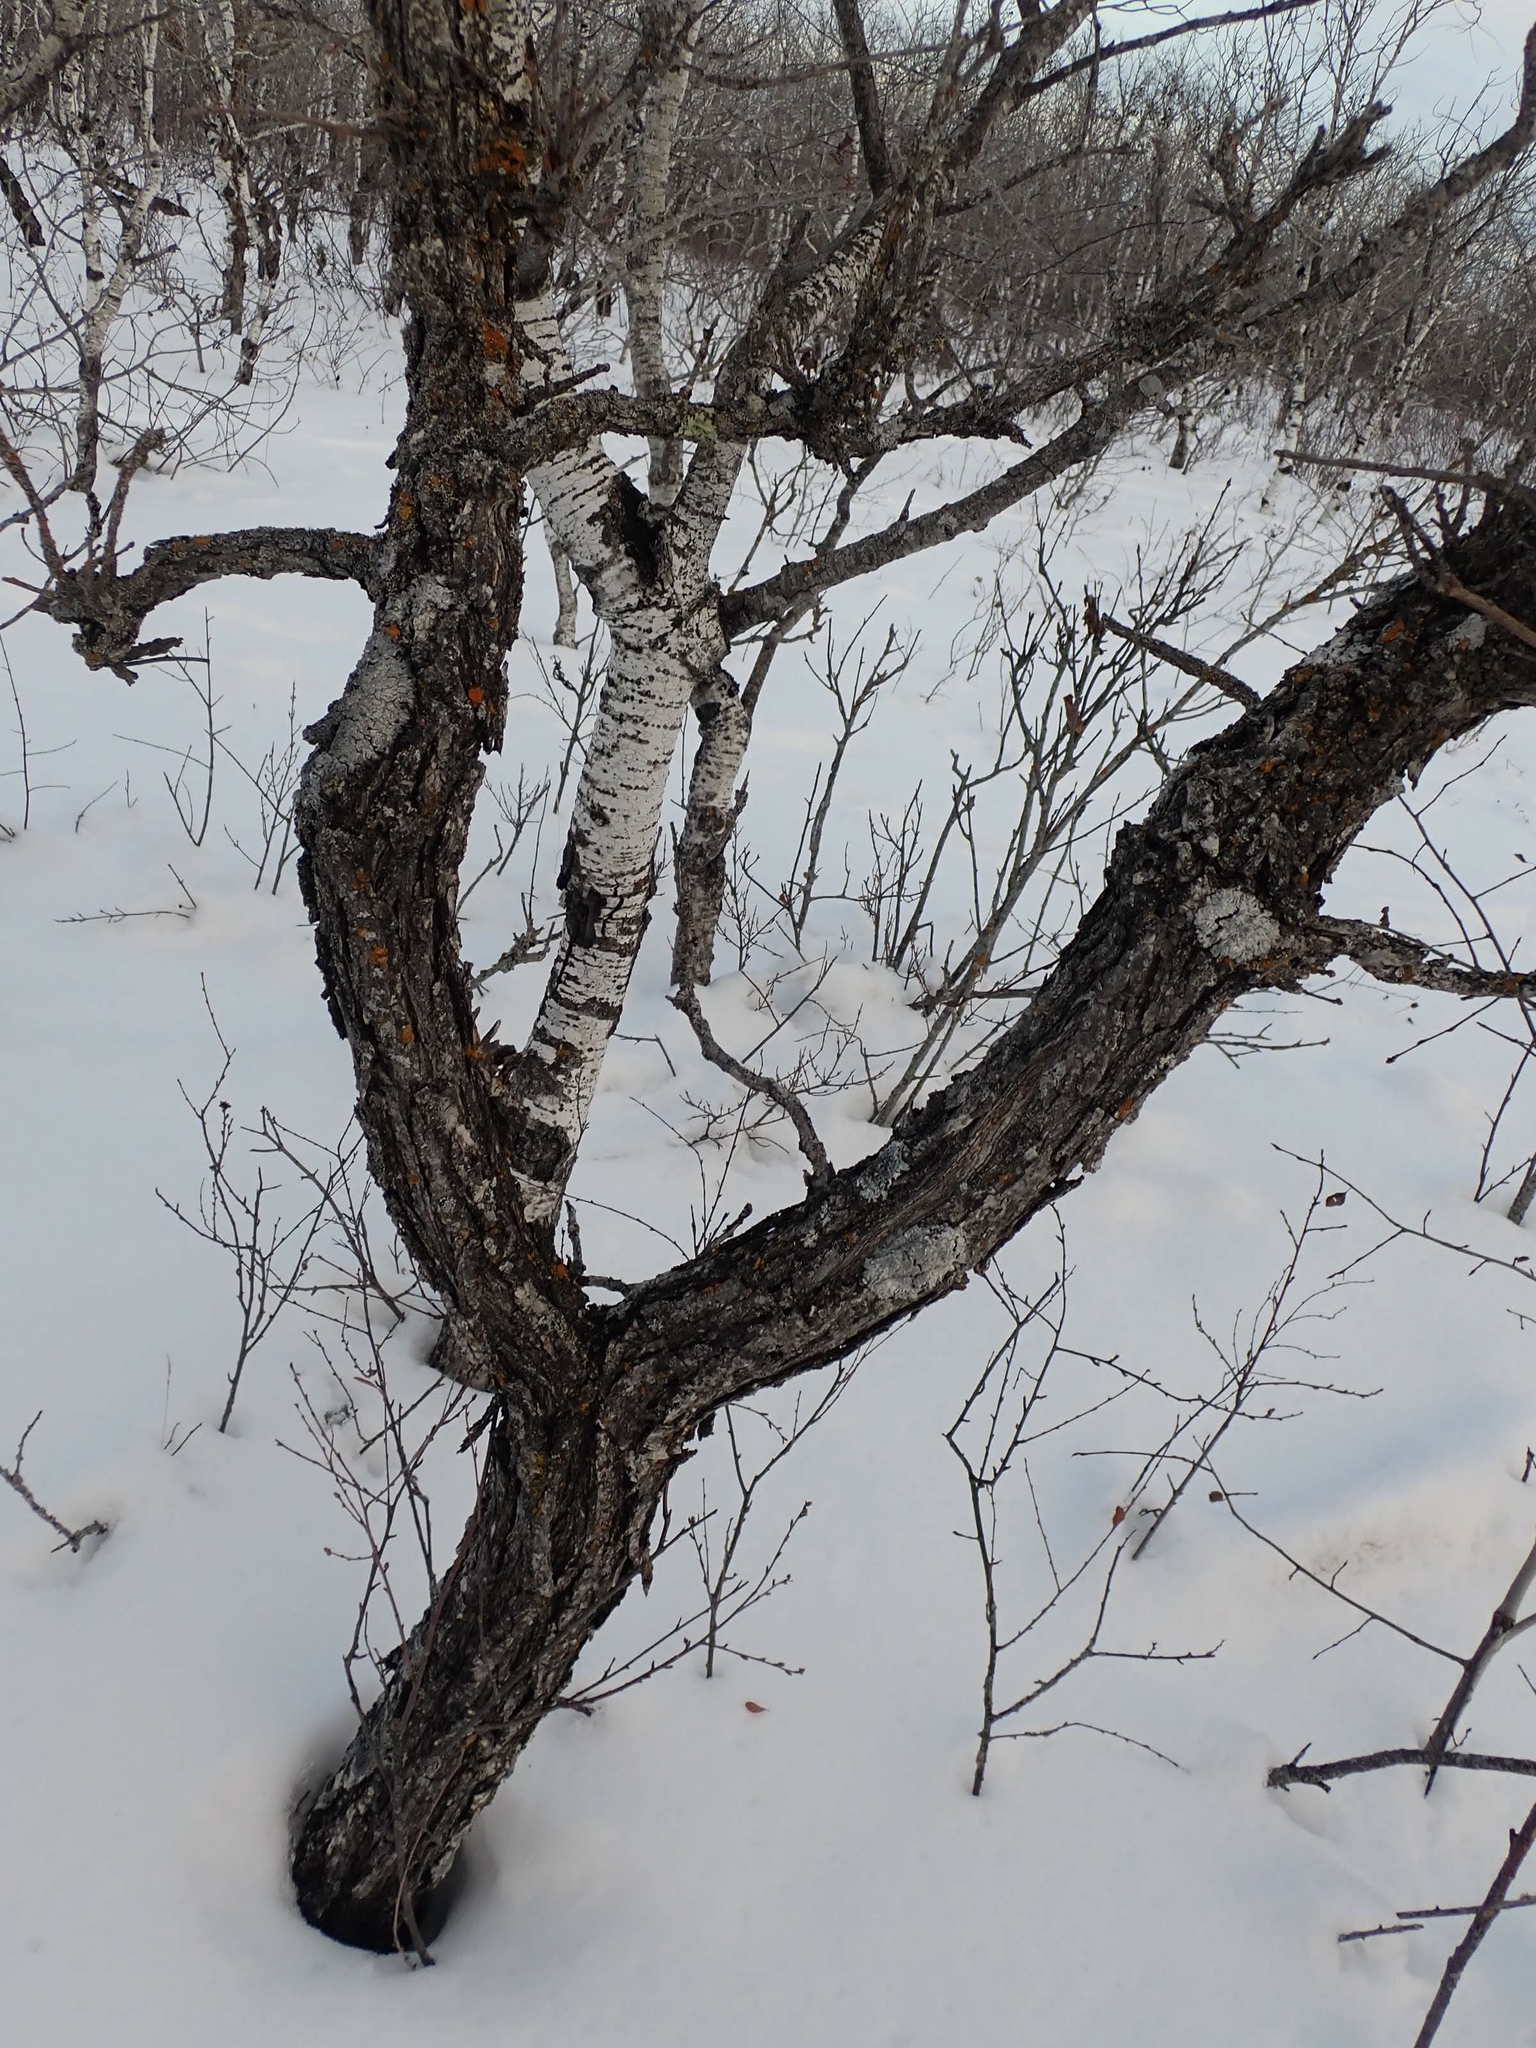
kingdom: Plantae
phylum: Tracheophyta
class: Magnoliopsida
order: Fagales
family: Fagaceae
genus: Quercus
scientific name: Quercus macrocarpa
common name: Bur oak
